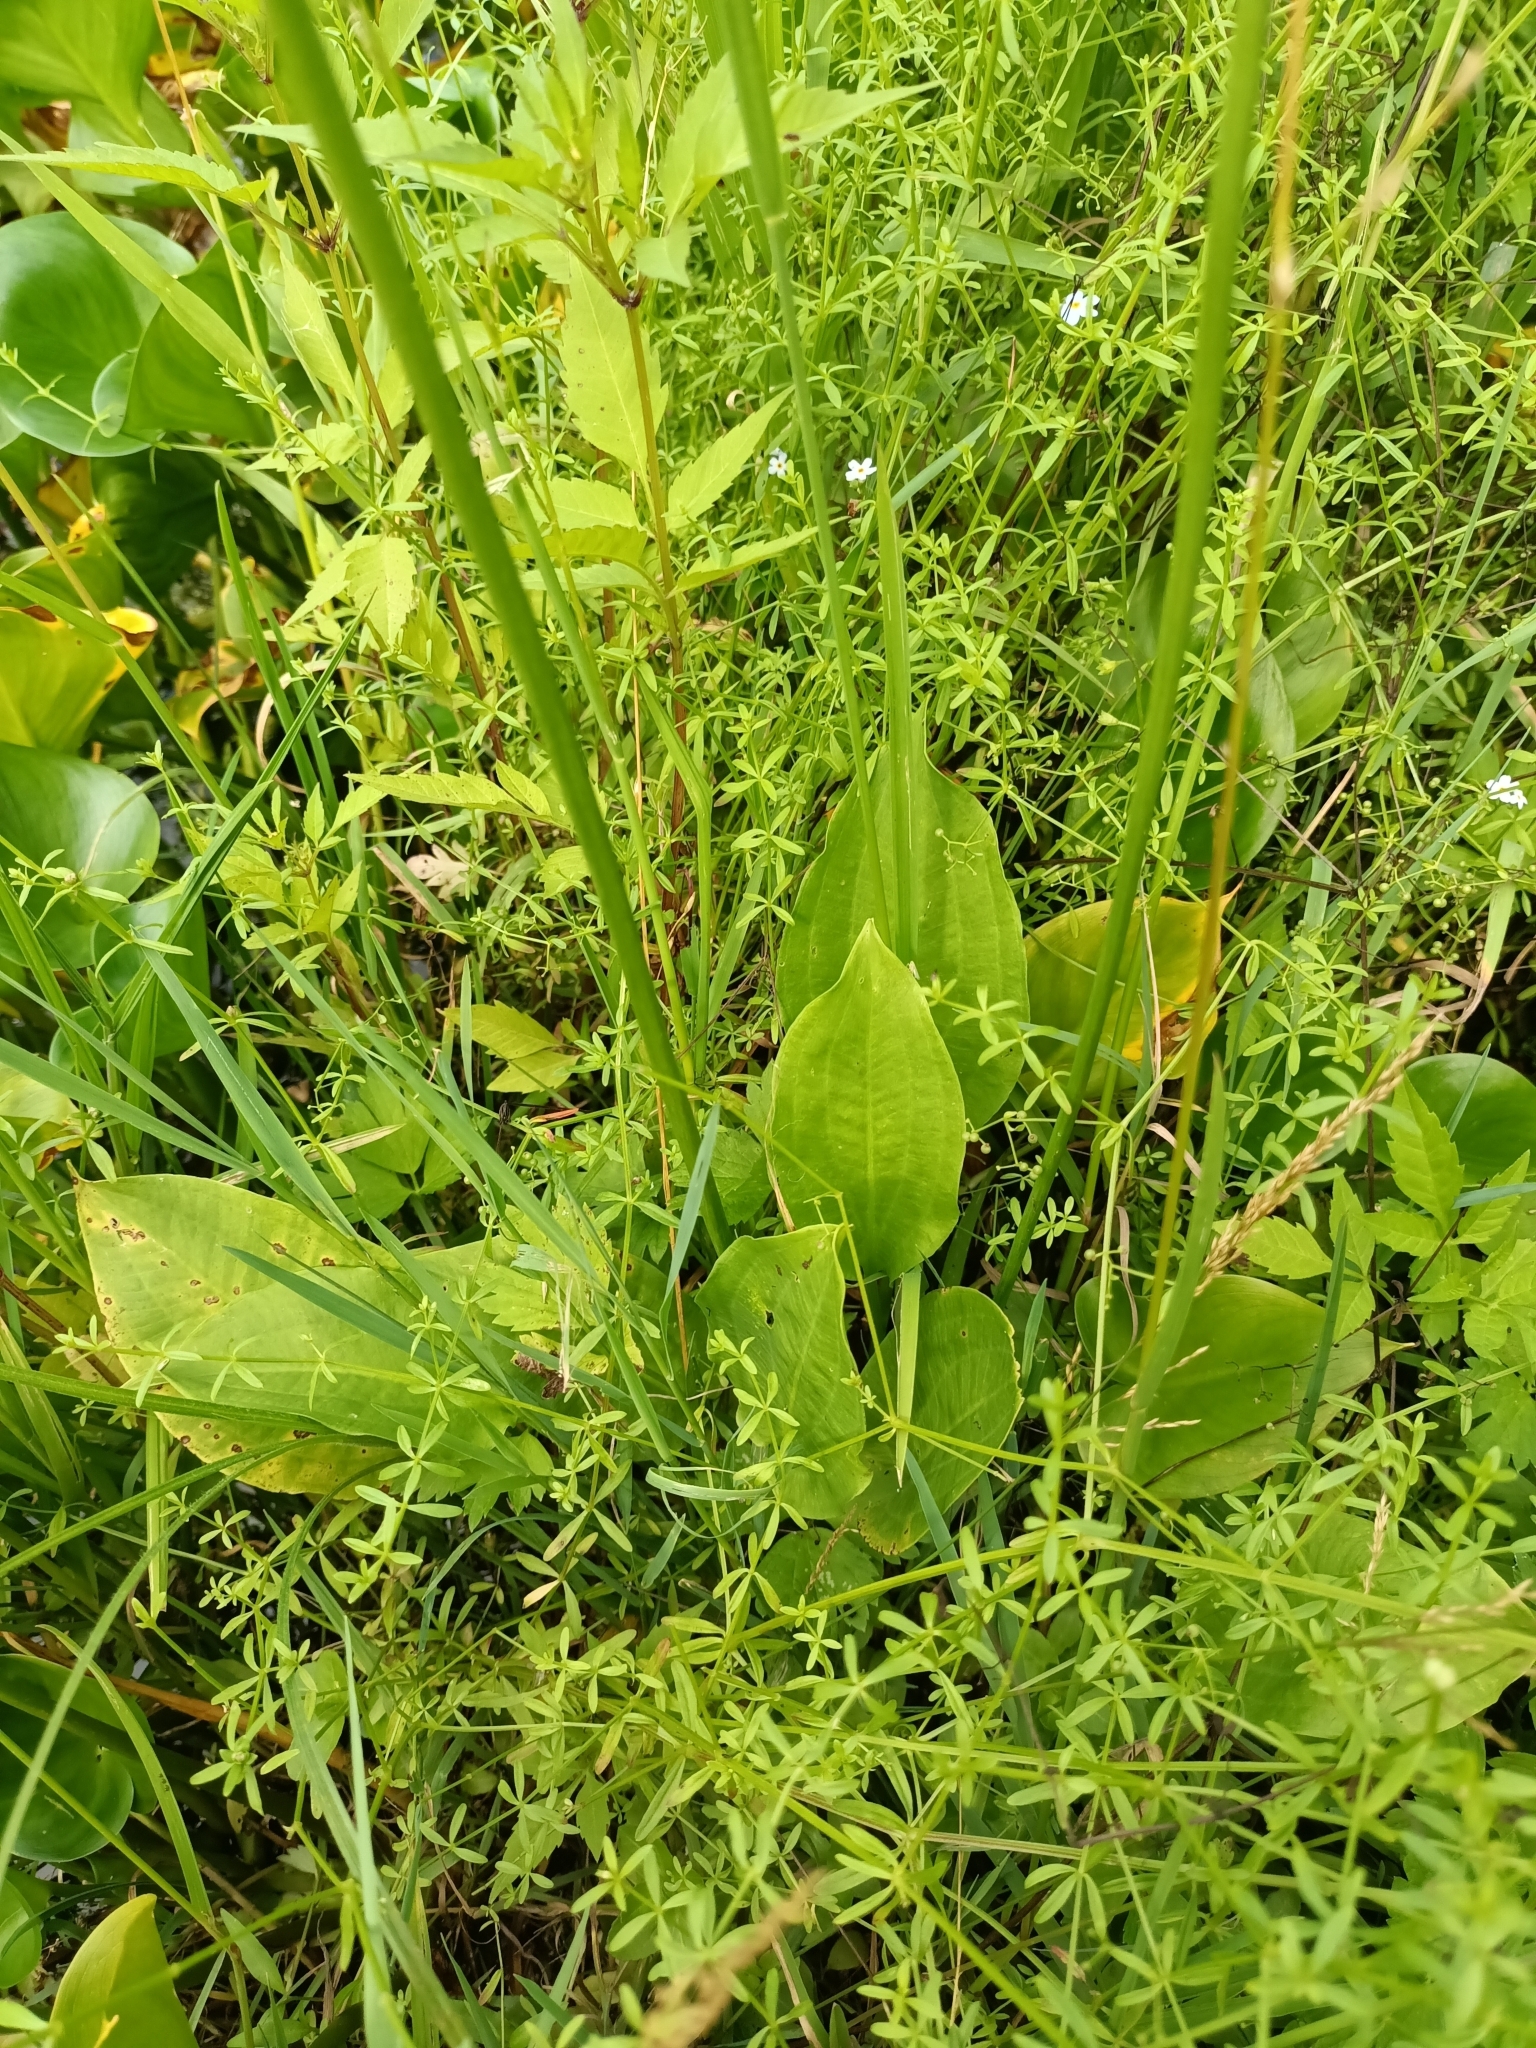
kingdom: Plantae
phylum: Tracheophyta
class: Liliopsida
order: Alismatales
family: Alismataceae
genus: Alisma
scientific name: Alisma plantago-aquatica
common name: Water-plantain
